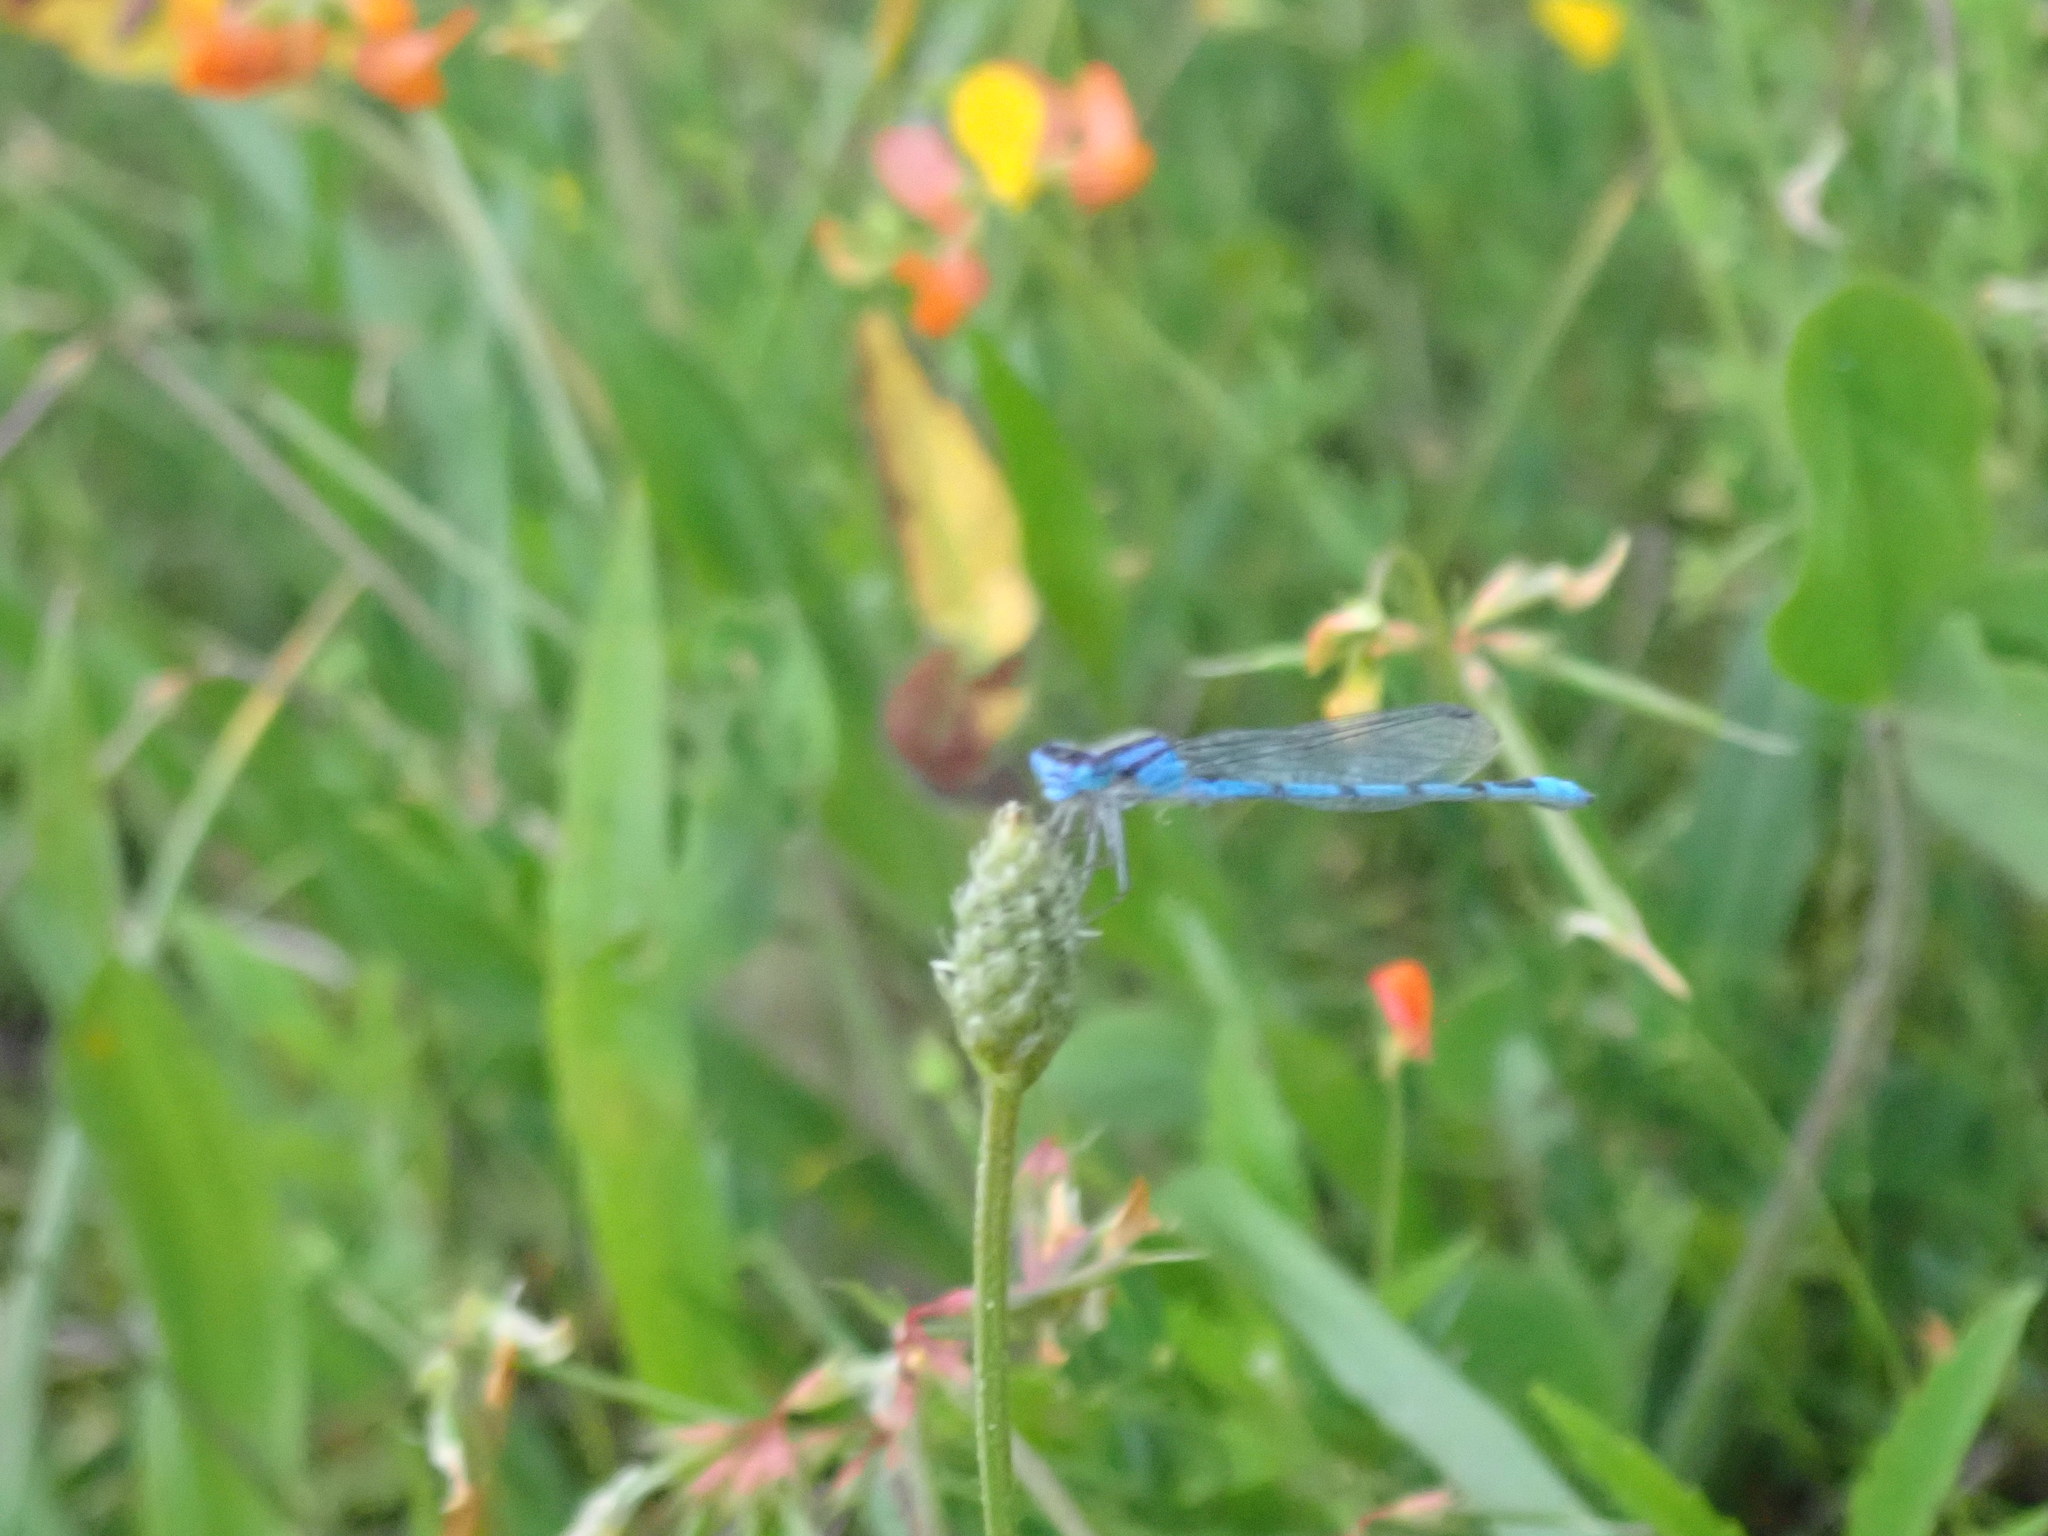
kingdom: Animalia
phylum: Arthropoda
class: Insecta
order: Odonata
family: Coenagrionidae
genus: Enallagma
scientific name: Enallagma
